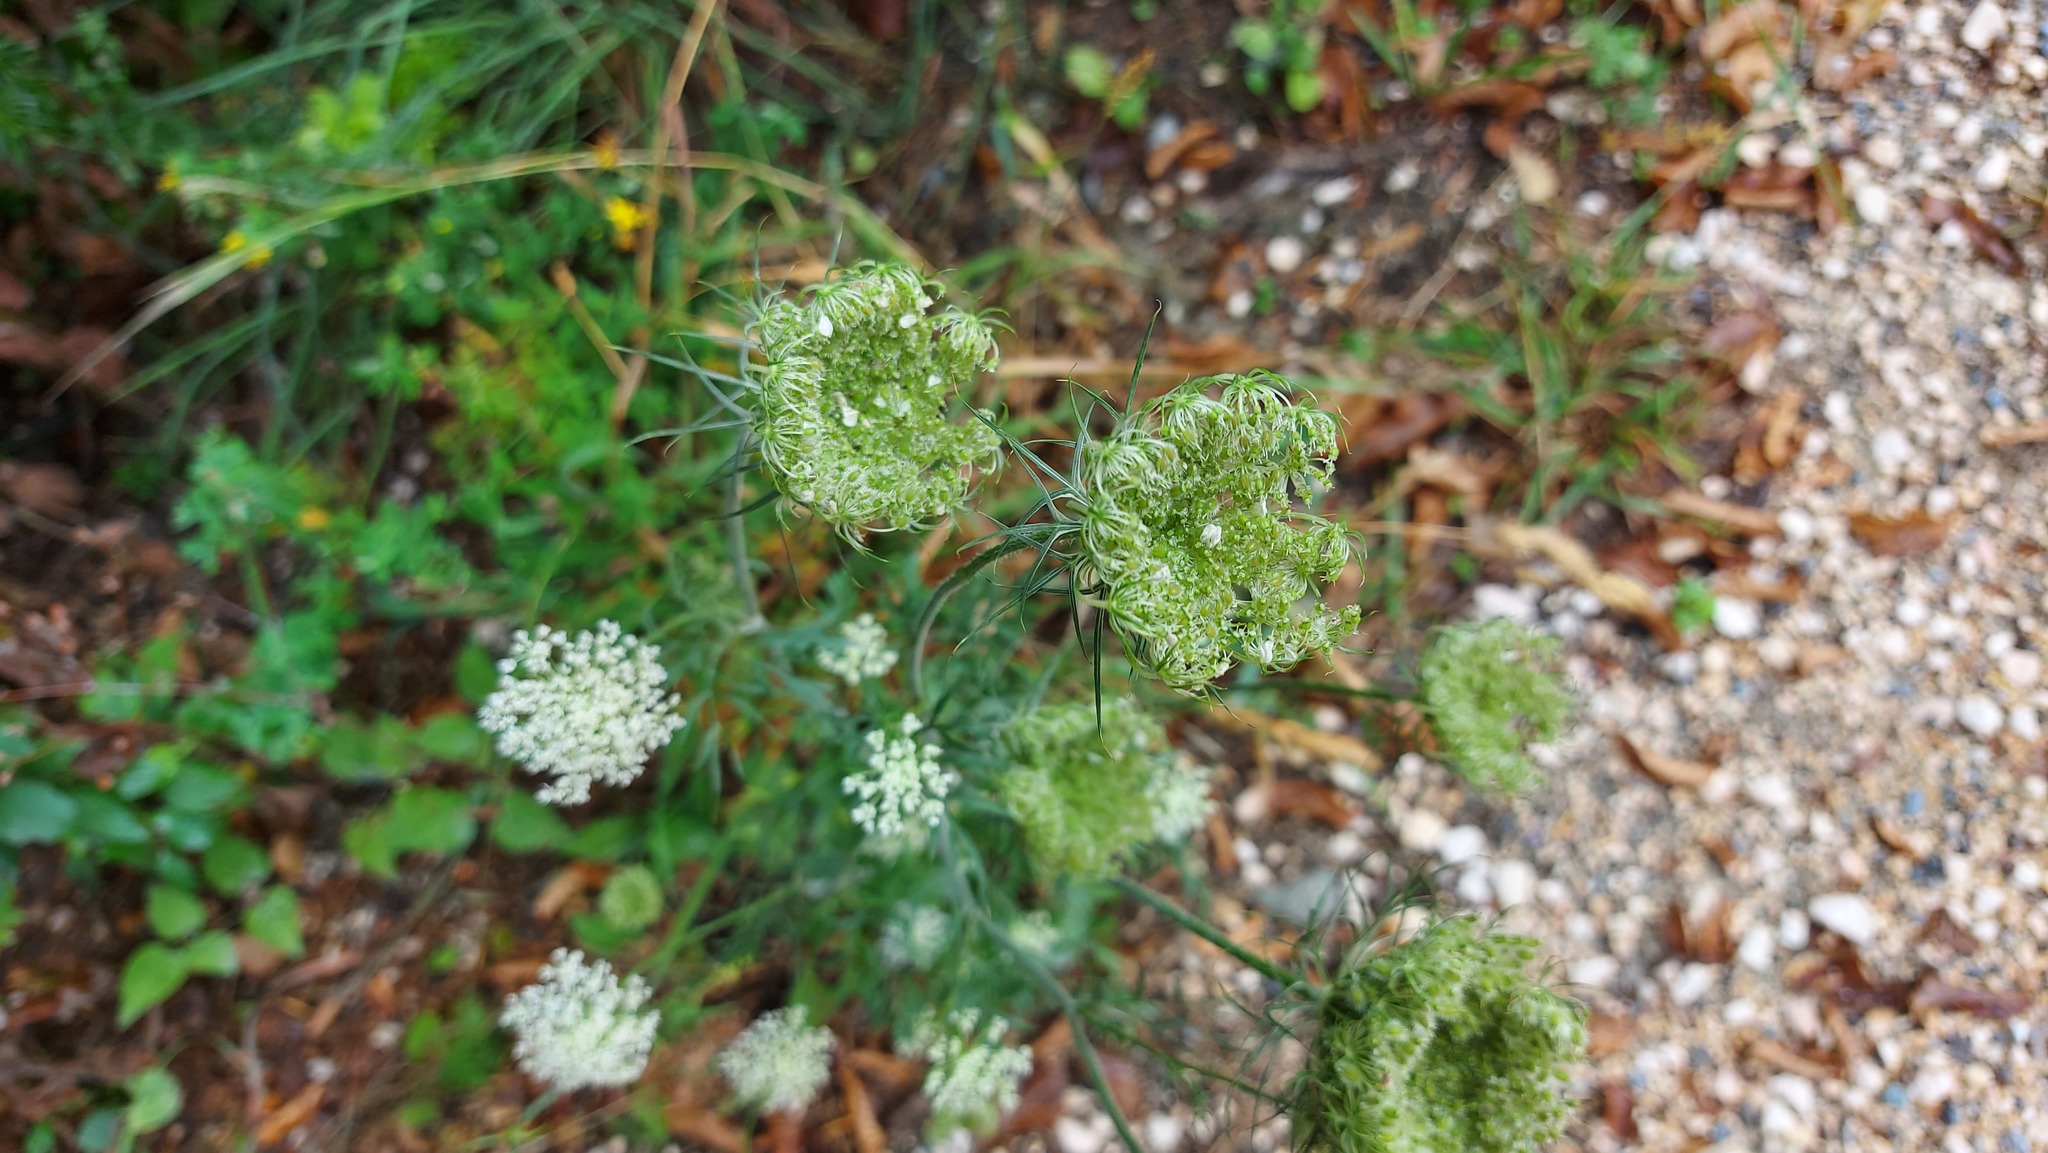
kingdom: Plantae
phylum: Tracheophyta
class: Magnoliopsida
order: Apiales
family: Apiaceae
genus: Daucus
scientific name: Daucus carota
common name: Wild carrot
